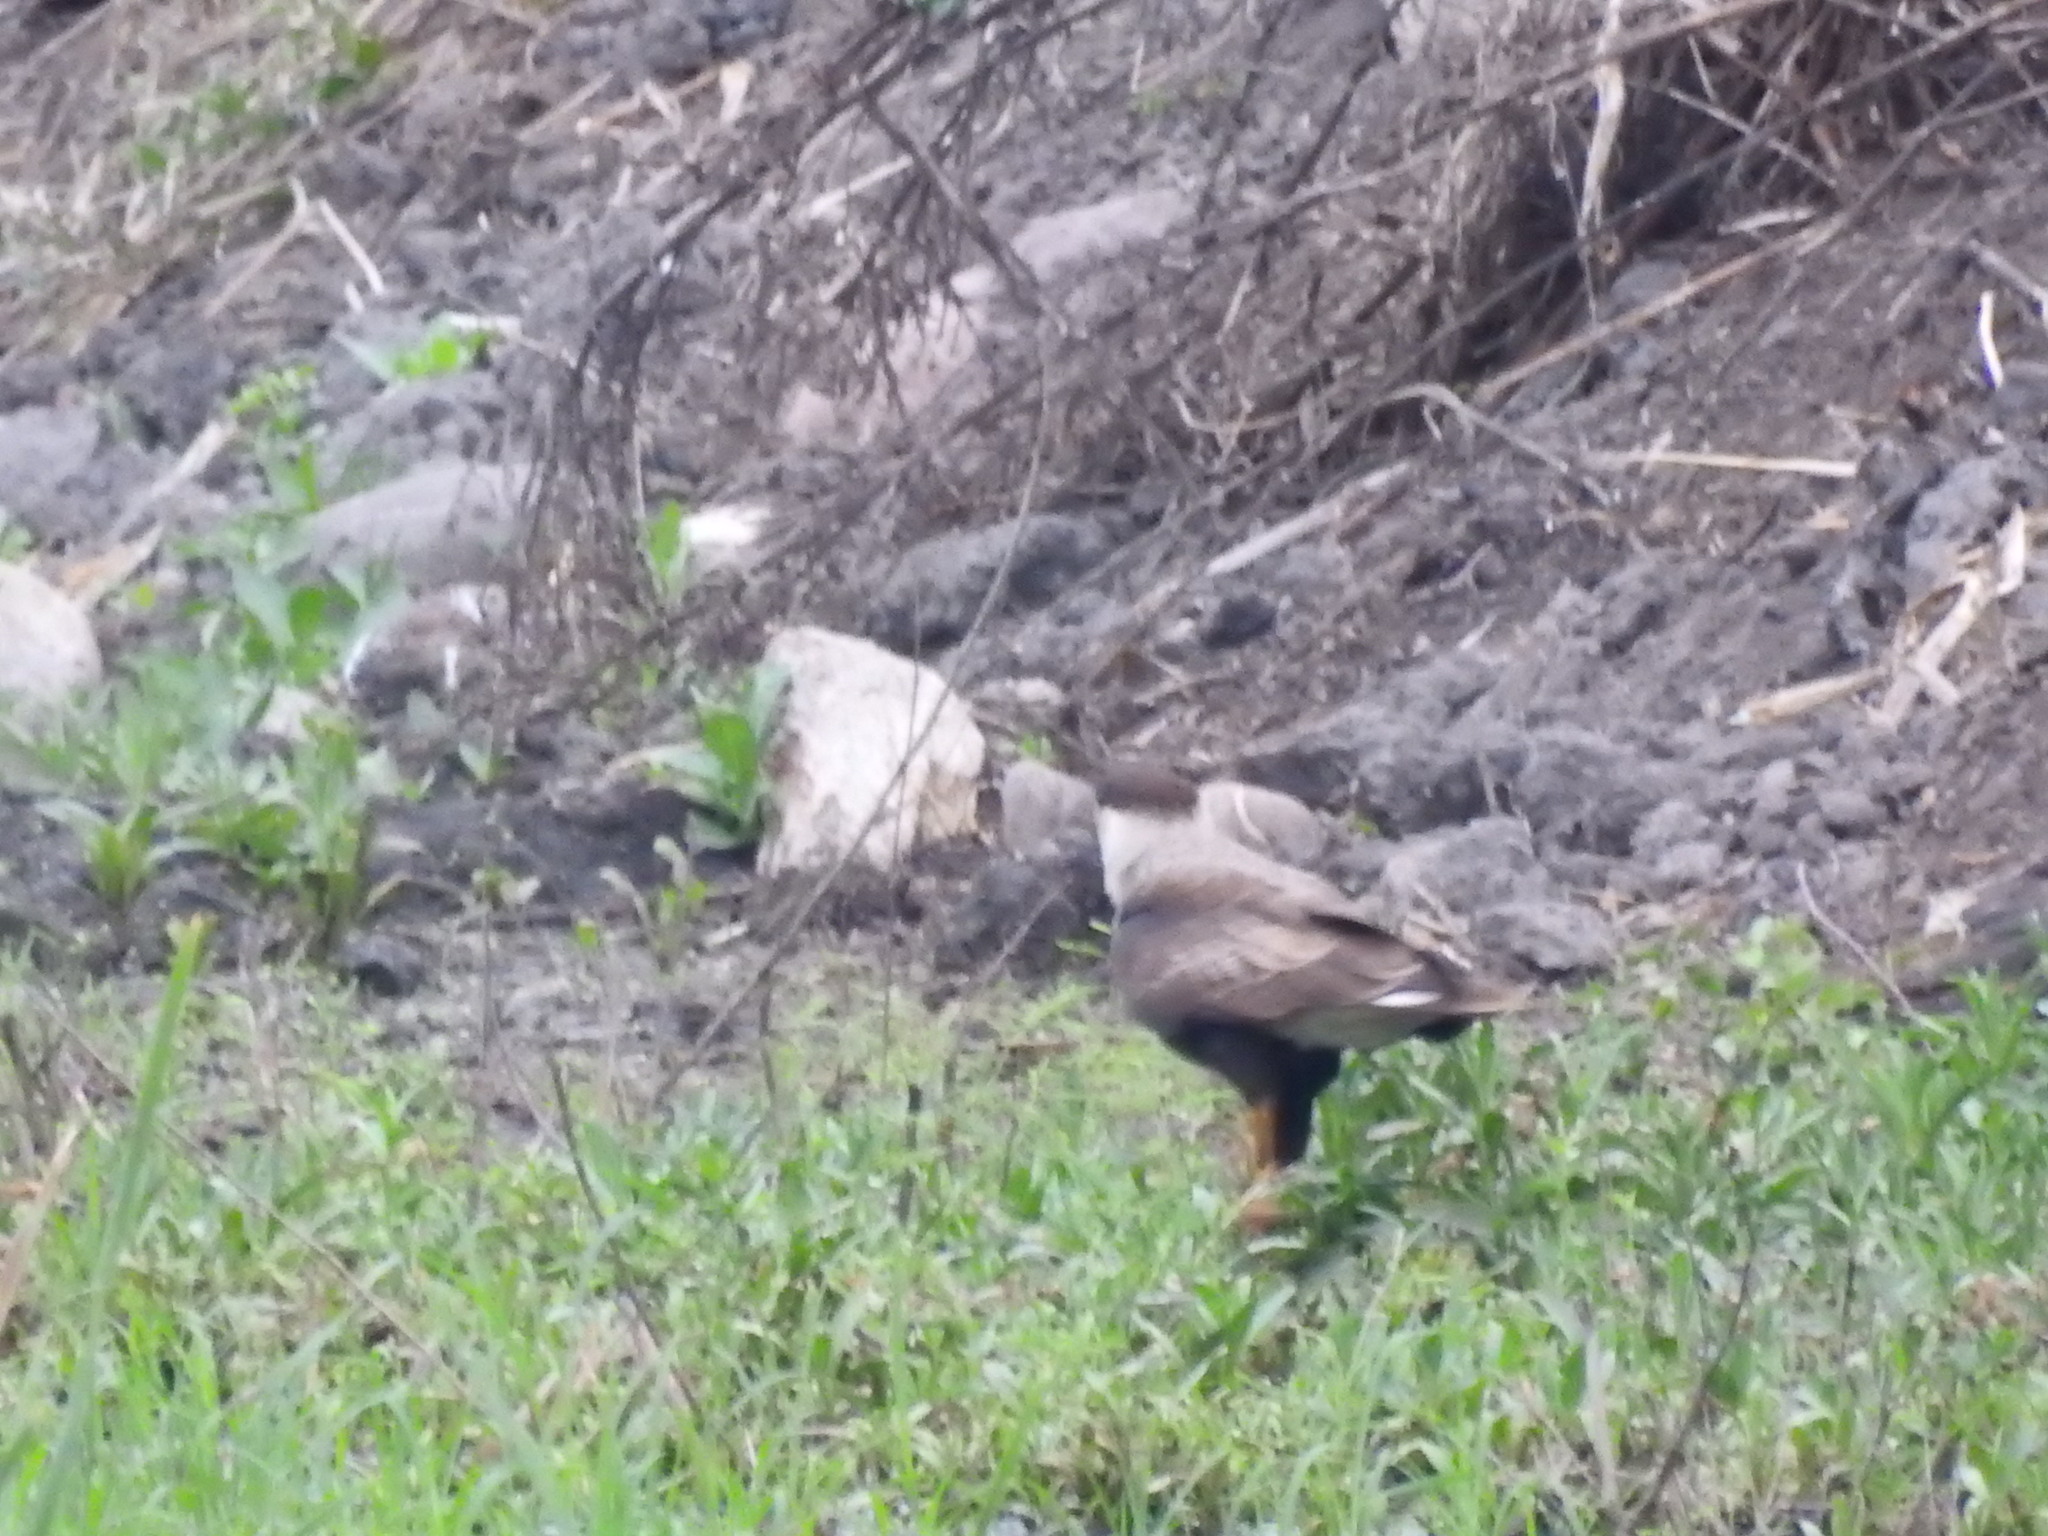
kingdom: Animalia
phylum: Chordata
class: Aves
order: Falconiformes
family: Falconidae
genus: Caracara
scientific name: Caracara plancus
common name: Southern caracara
